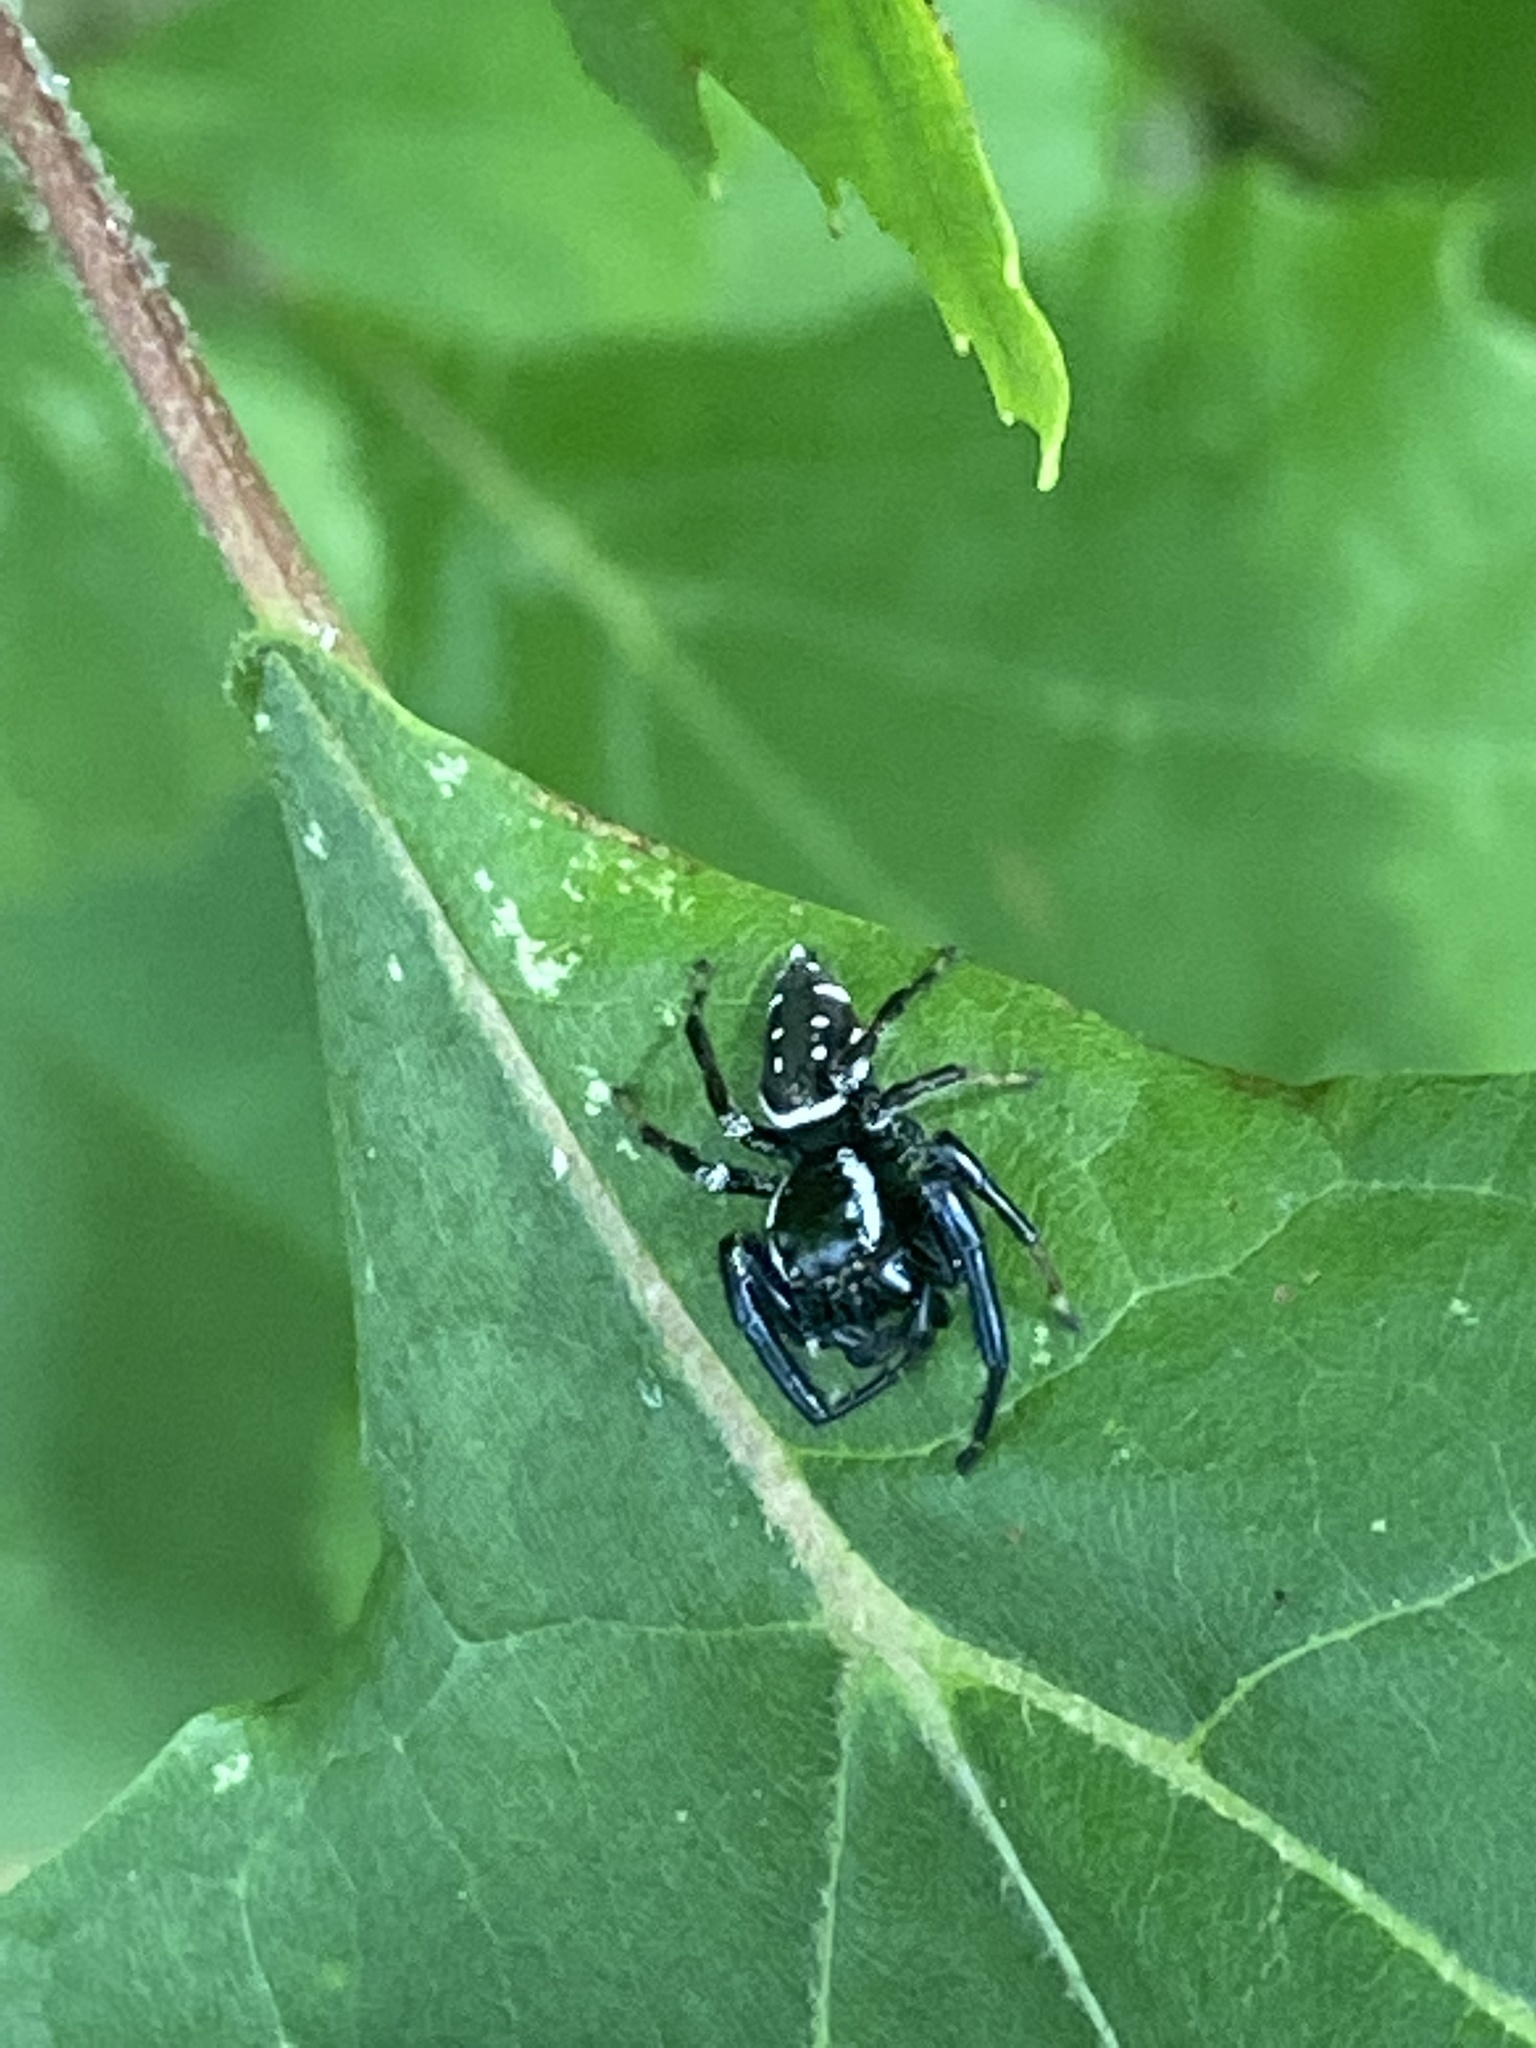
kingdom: Animalia
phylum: Arthropoda
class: Arachnida
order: Araneae
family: Salticidae
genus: Paraphidippus
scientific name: Paraphidippus aurantius
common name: Jumping spiders
